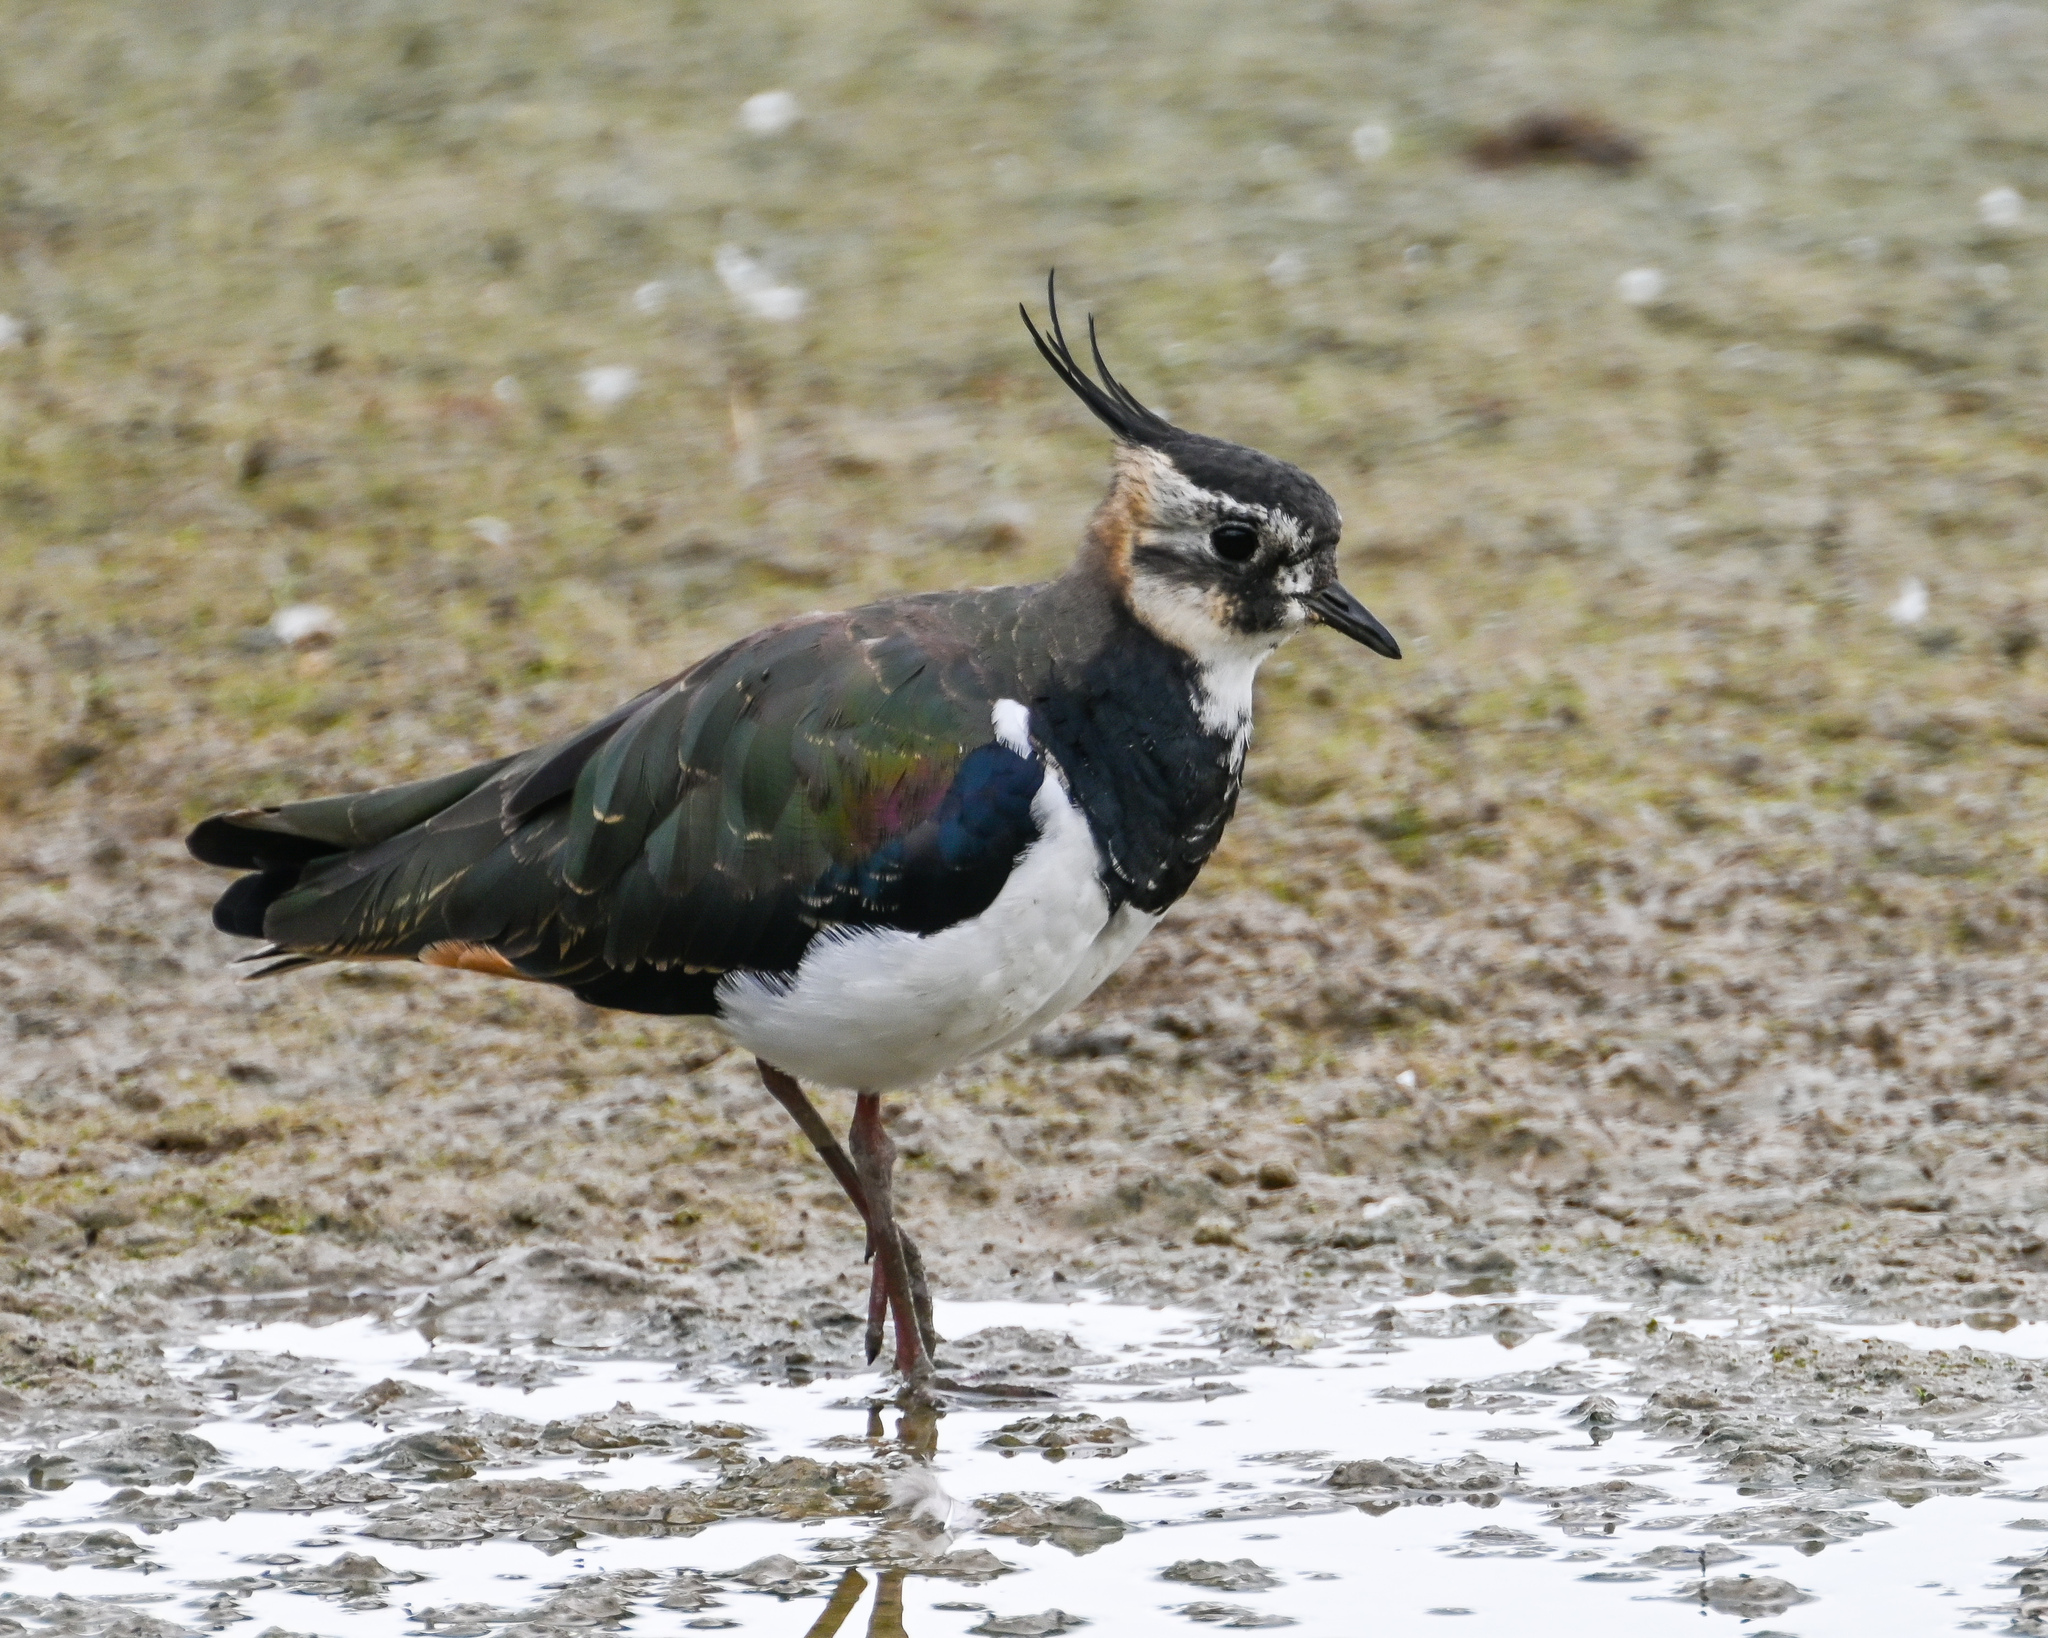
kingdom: Animalia
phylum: Chordata
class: Aves
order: Charadriiformes
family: Charadriidae
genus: Vanellus
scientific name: Vanellus vanellus
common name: Northern lapwing
